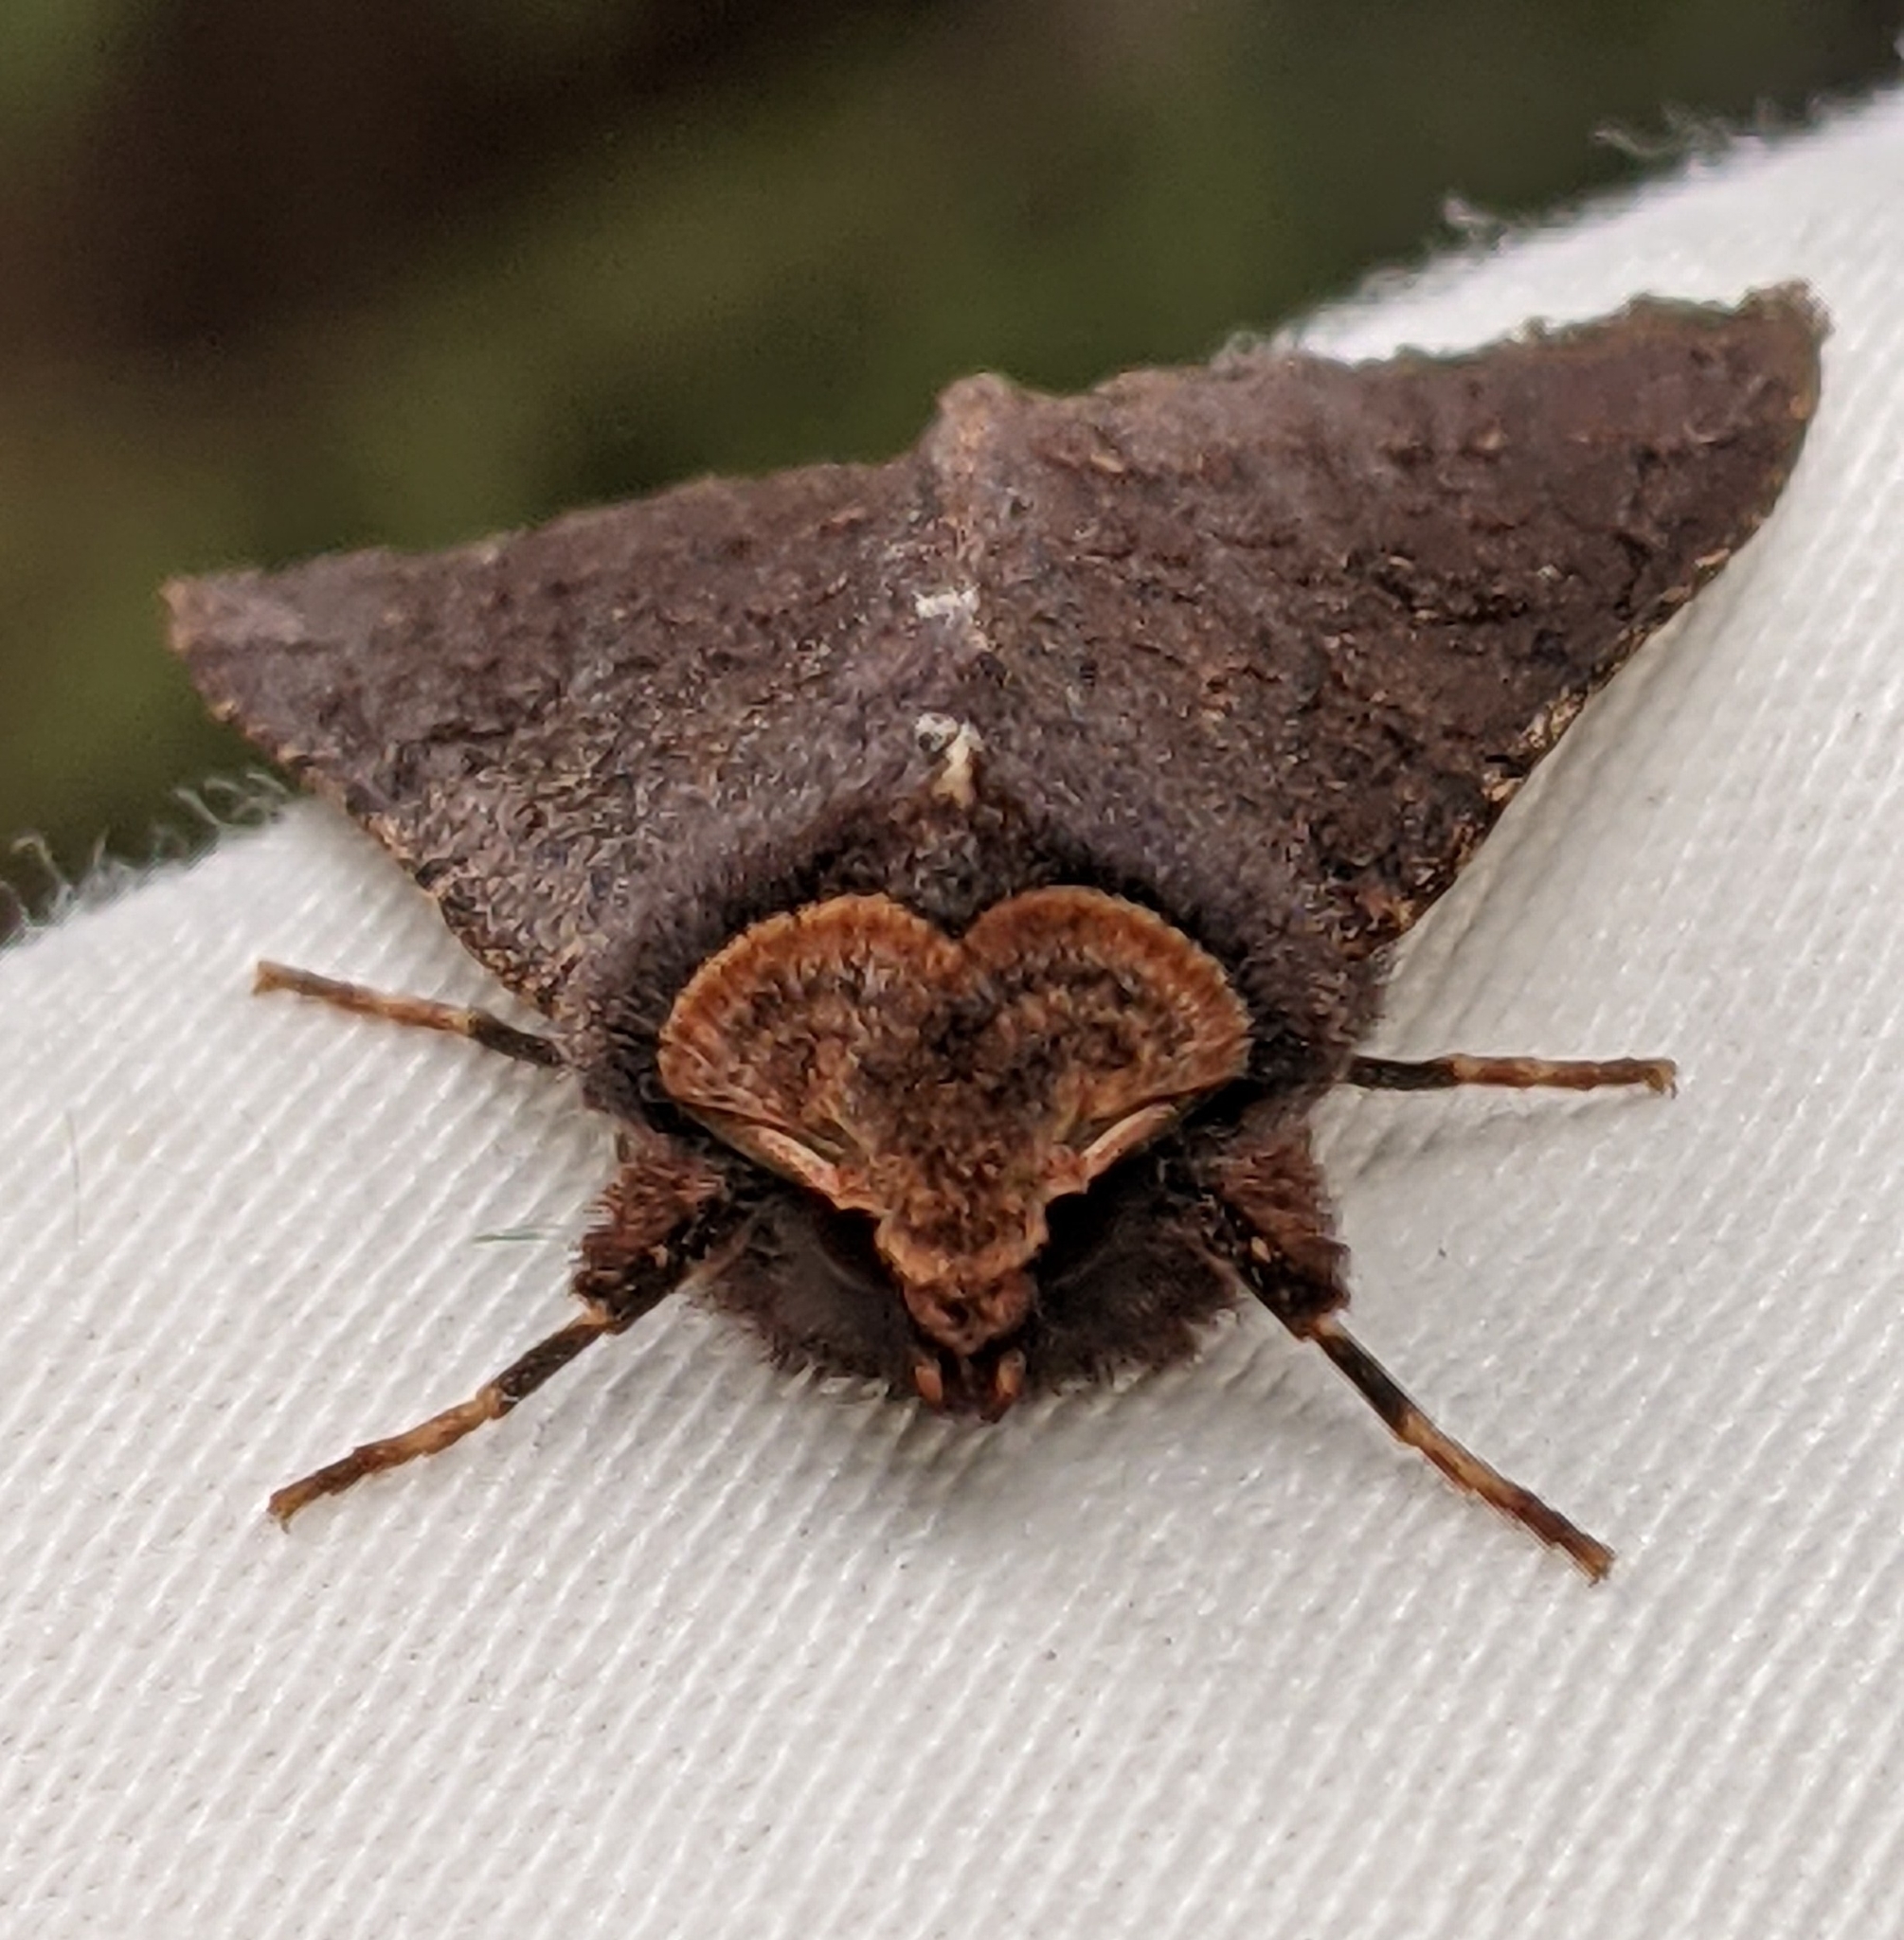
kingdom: Animalia
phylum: Arthropoda
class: Insecta
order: Lepidoptera
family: Noctuidae
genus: Orthosia
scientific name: Orthosia praeses
